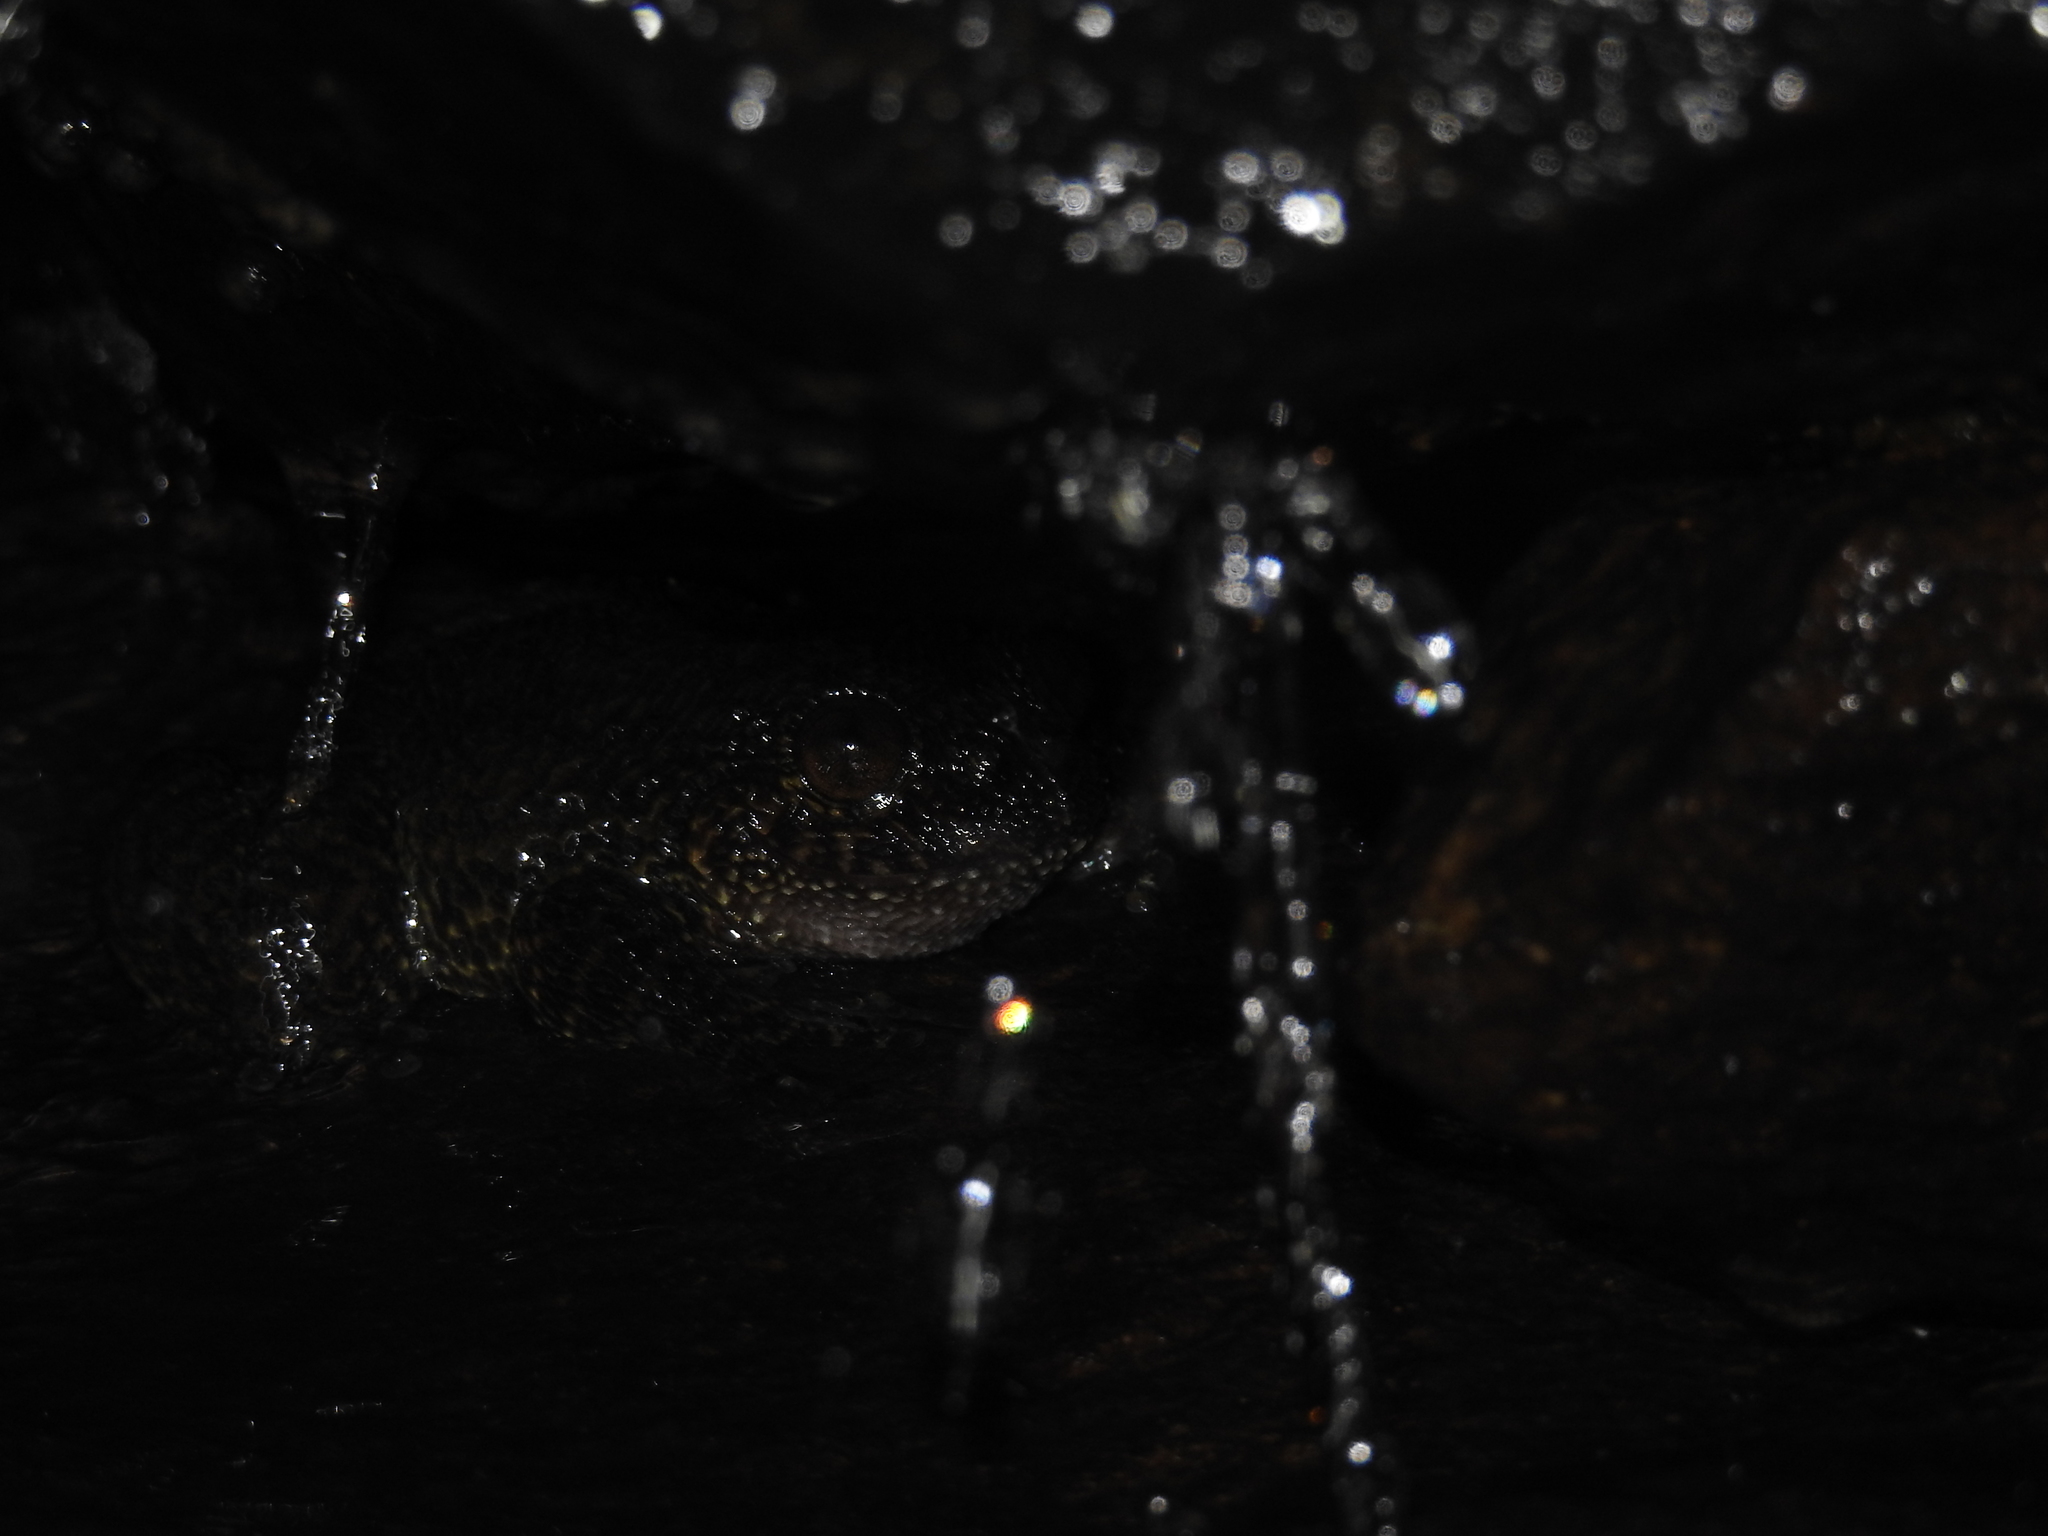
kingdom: Animalia
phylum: Chordata
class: Amphibia
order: Anura
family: Nyctibatrachidae
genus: Nyctibatrachus
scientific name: Nyctibatrachus grandis
